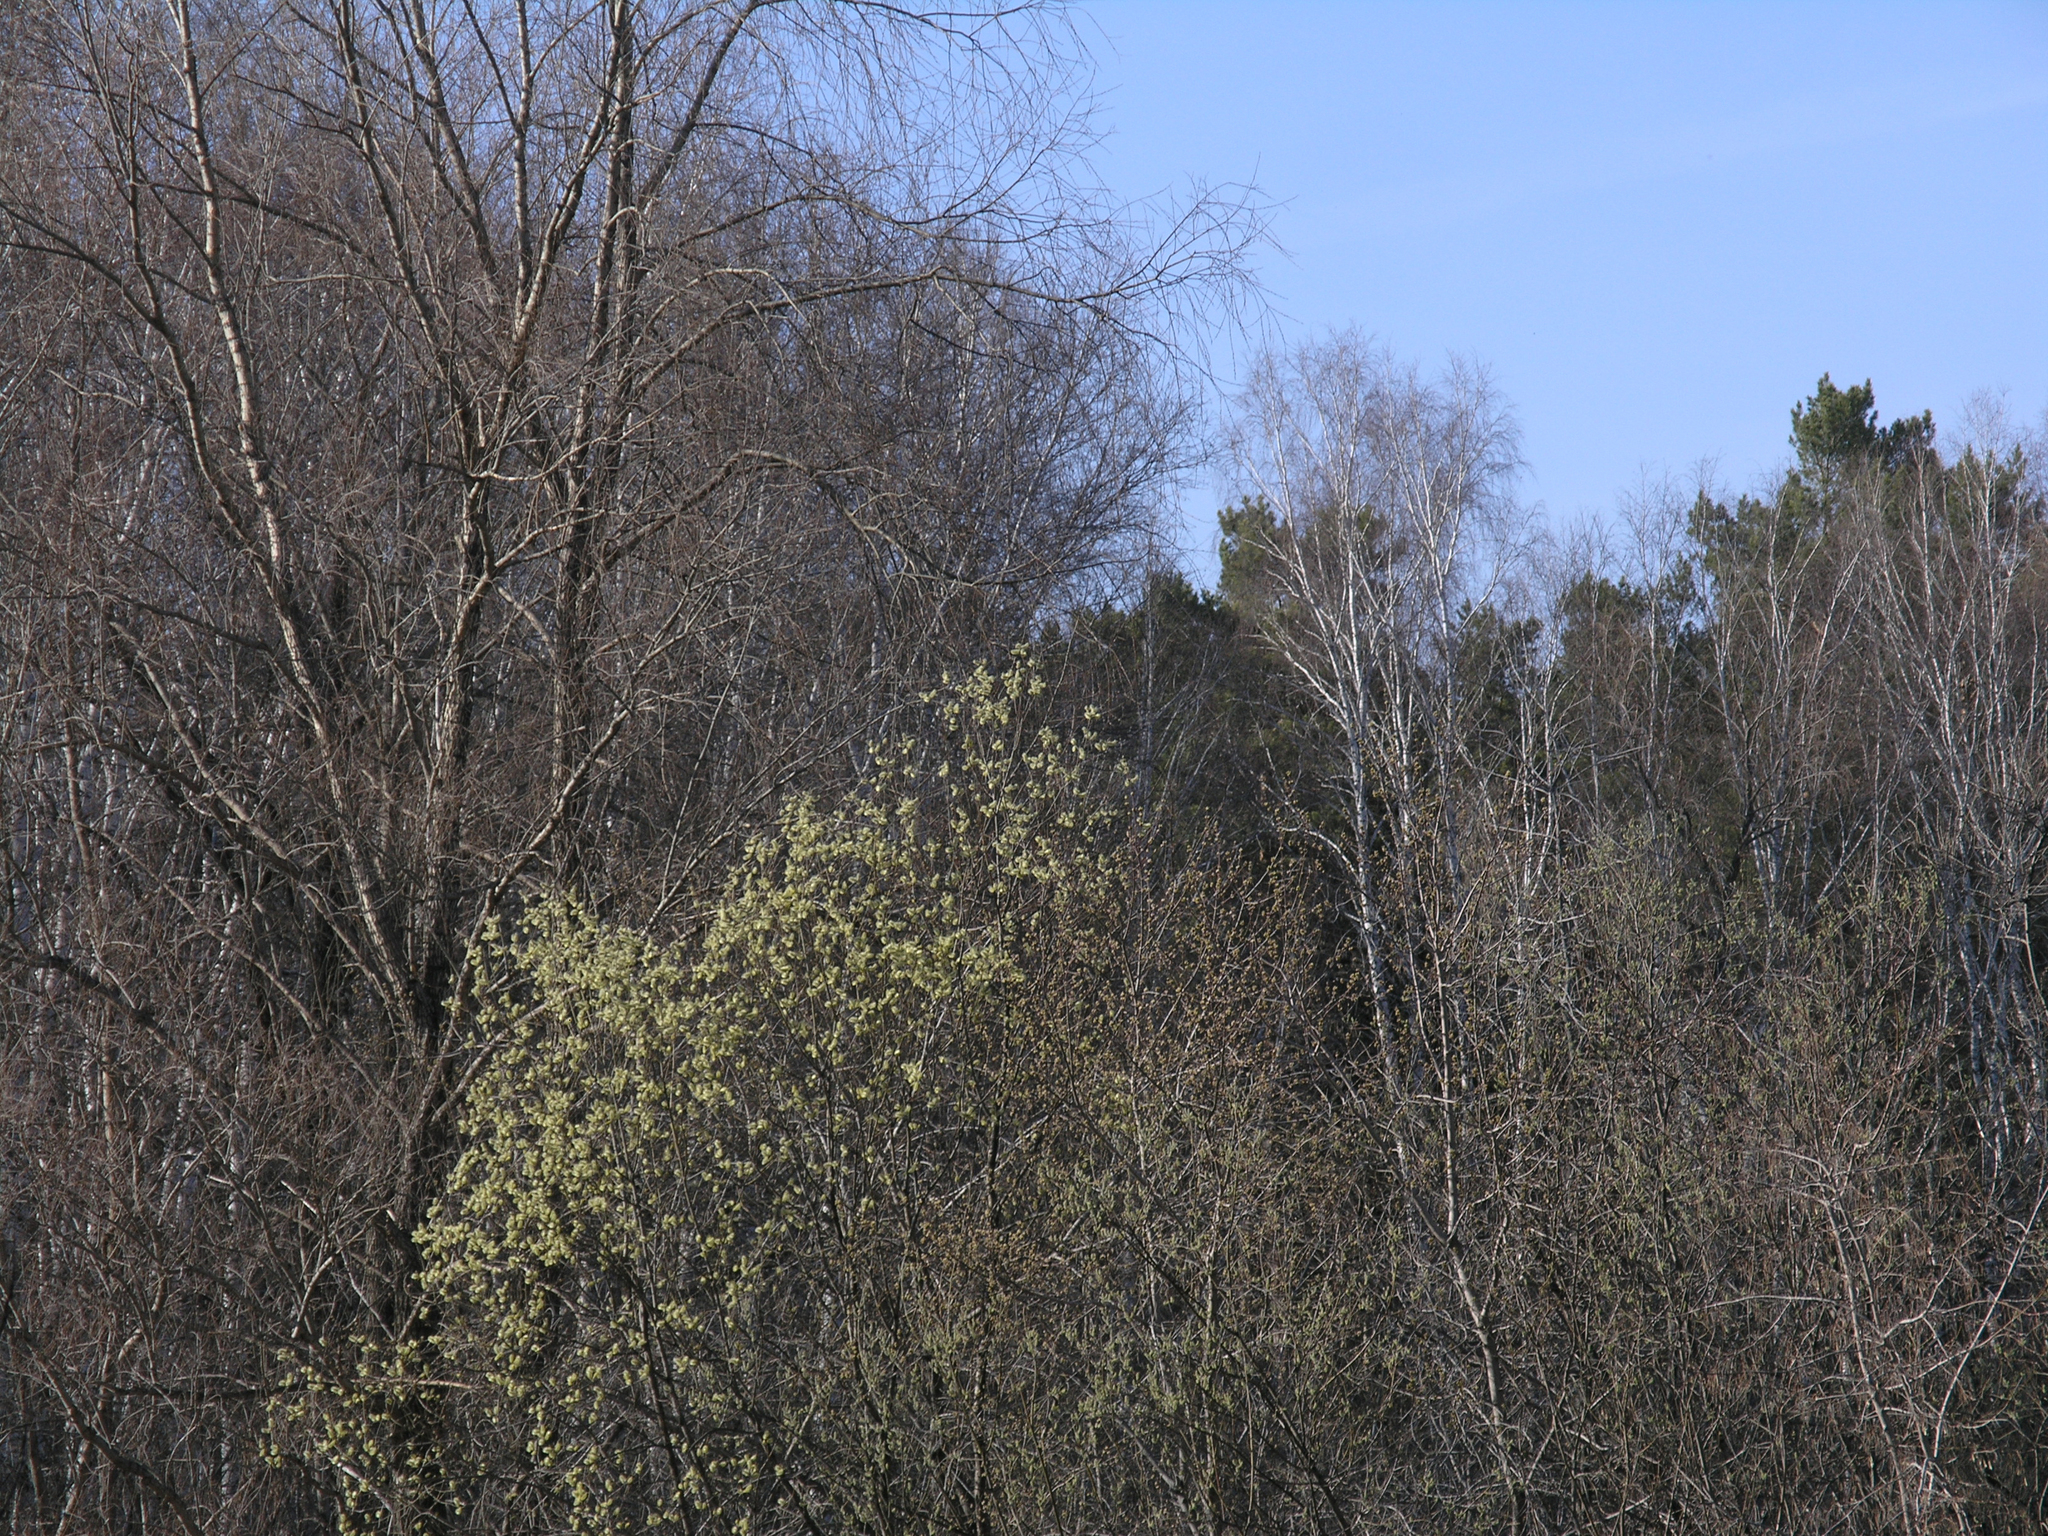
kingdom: Plantae
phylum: Tracheophyta
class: Magnoliopsida
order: Malpighiales
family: Salicaceae
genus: Salix
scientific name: Salix caprea
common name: Goat willow
